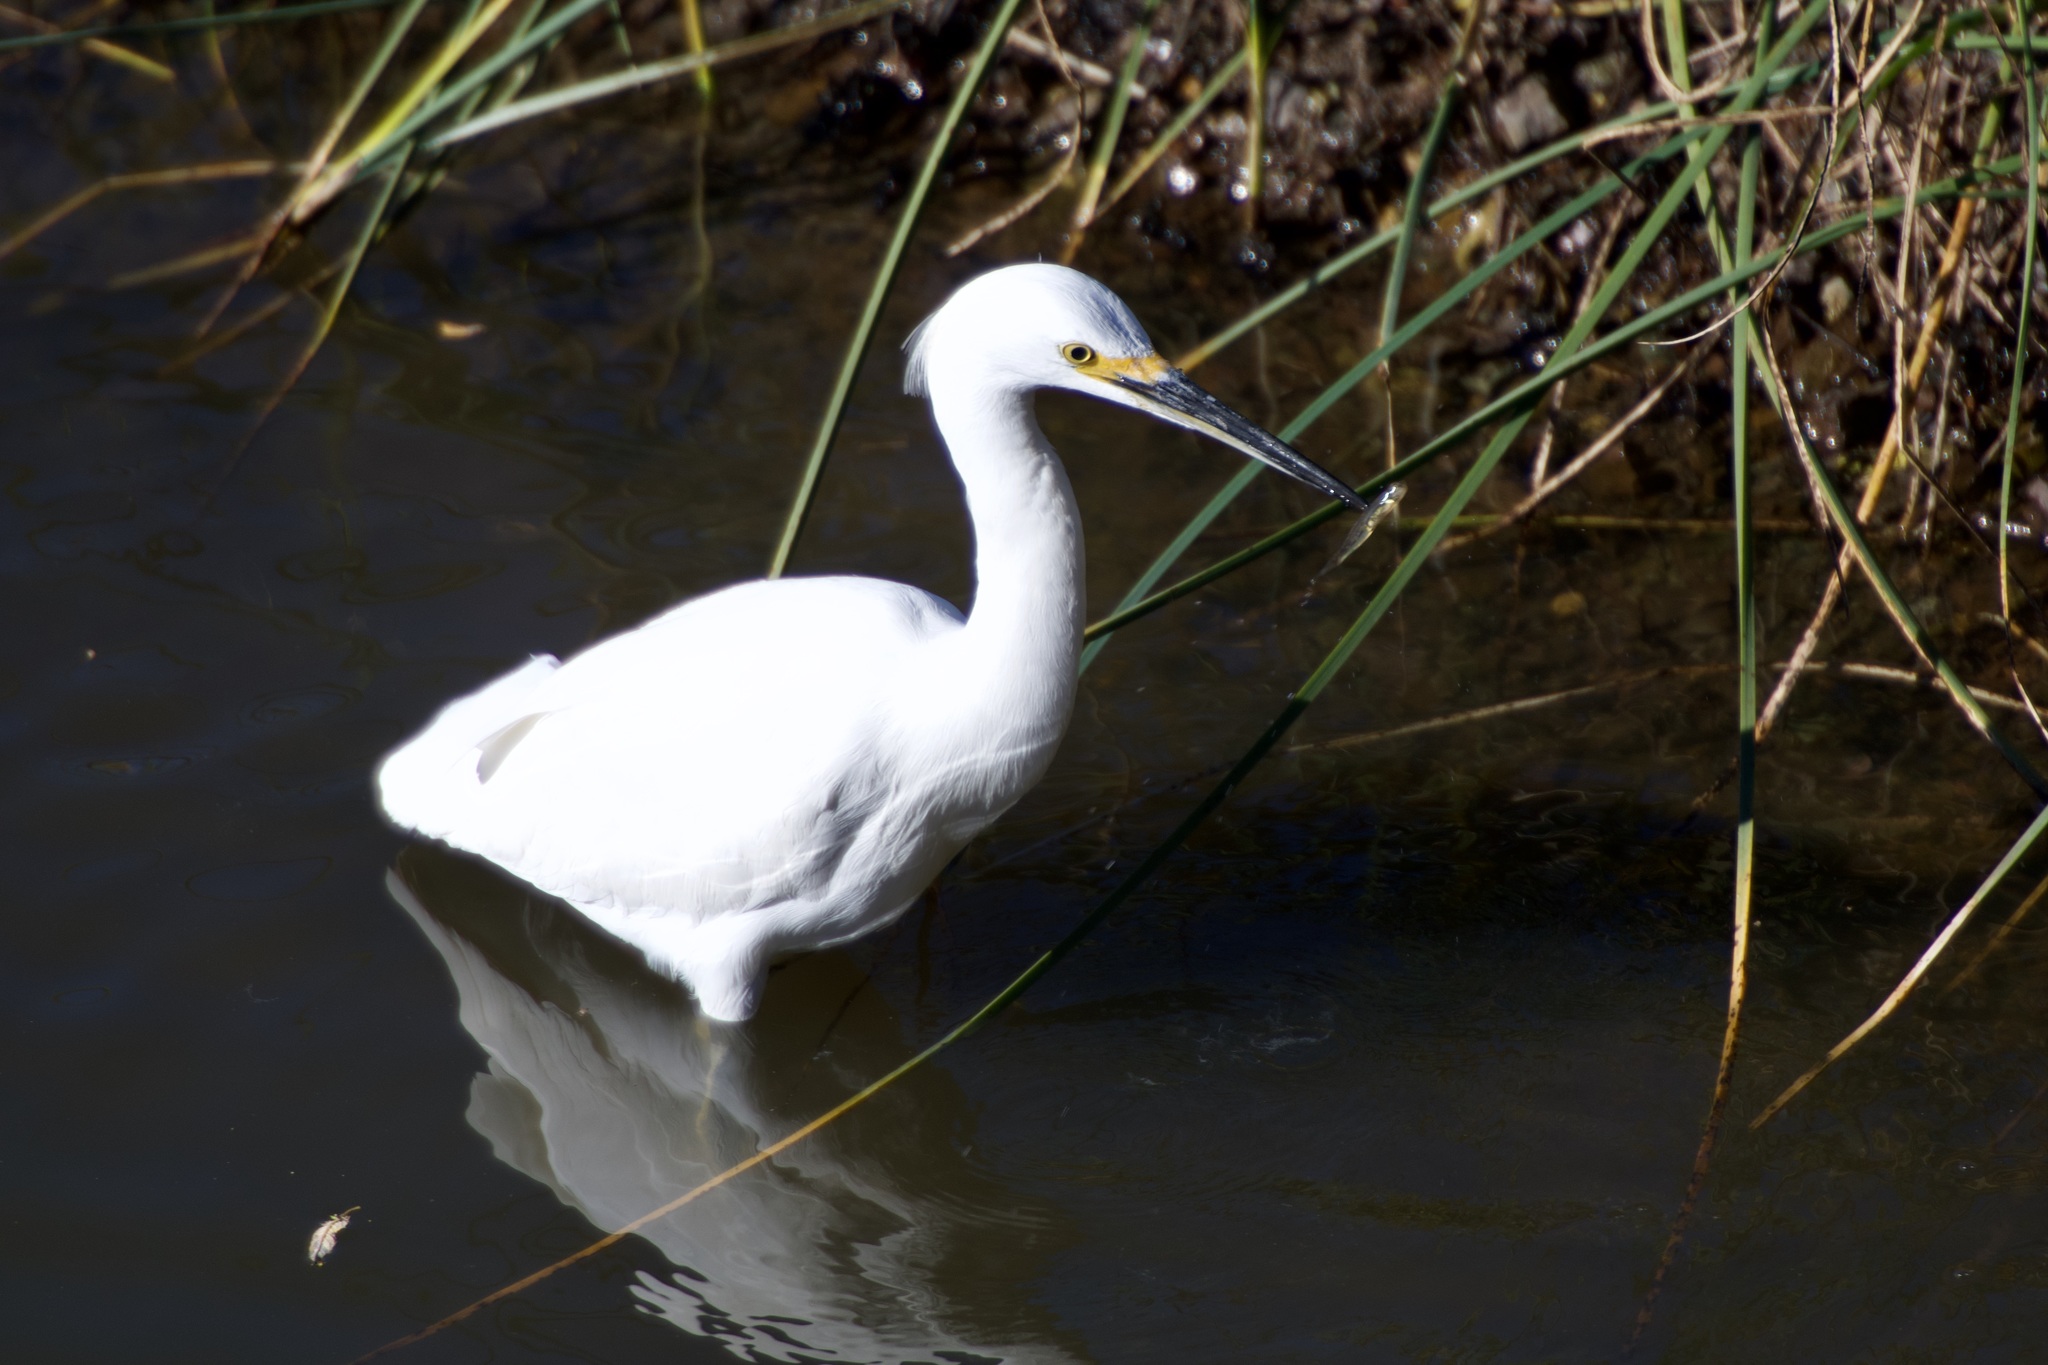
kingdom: Animalia
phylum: Chordata
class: Aves
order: Pelecaniformes
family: Ardeidae
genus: Egretta
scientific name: Egretta thula
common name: Snowy egret
